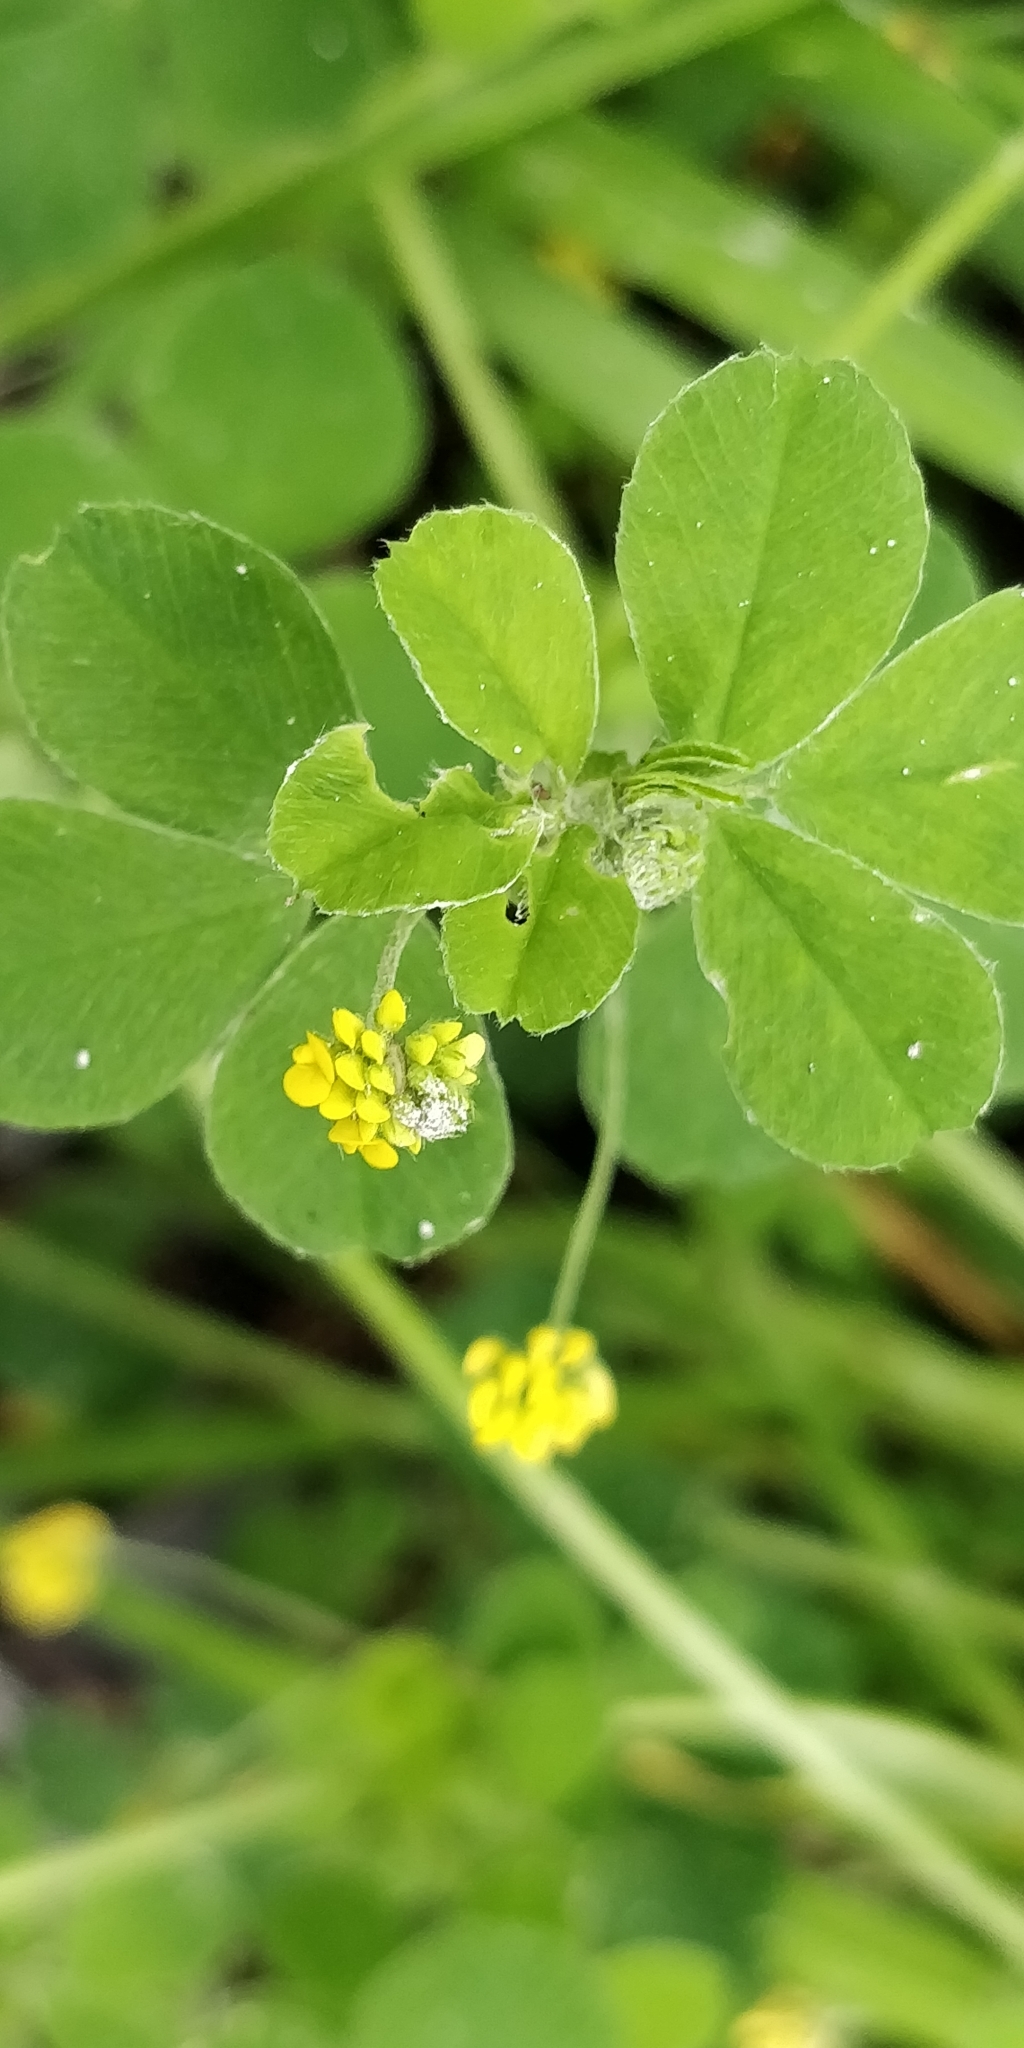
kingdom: Plantae
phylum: Tracheophyta
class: Magnoliopsida
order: Fabales
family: Fabaceae
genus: Medicago
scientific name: Medicago lupulina
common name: Black medick
